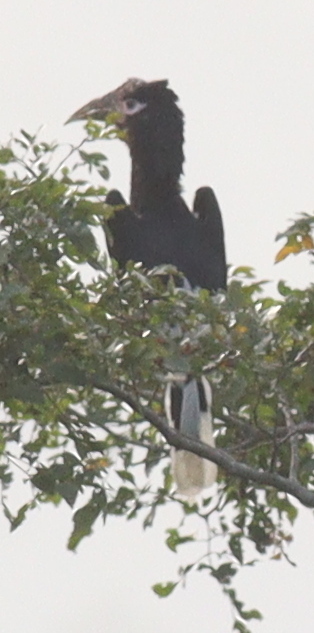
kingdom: Animalia
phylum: Chordata
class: Aves
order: Bucerotiformes
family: Bucerotidae
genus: Bycanistes
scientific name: Bycanistes cylindricus
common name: Brown-cheeked hornbill
